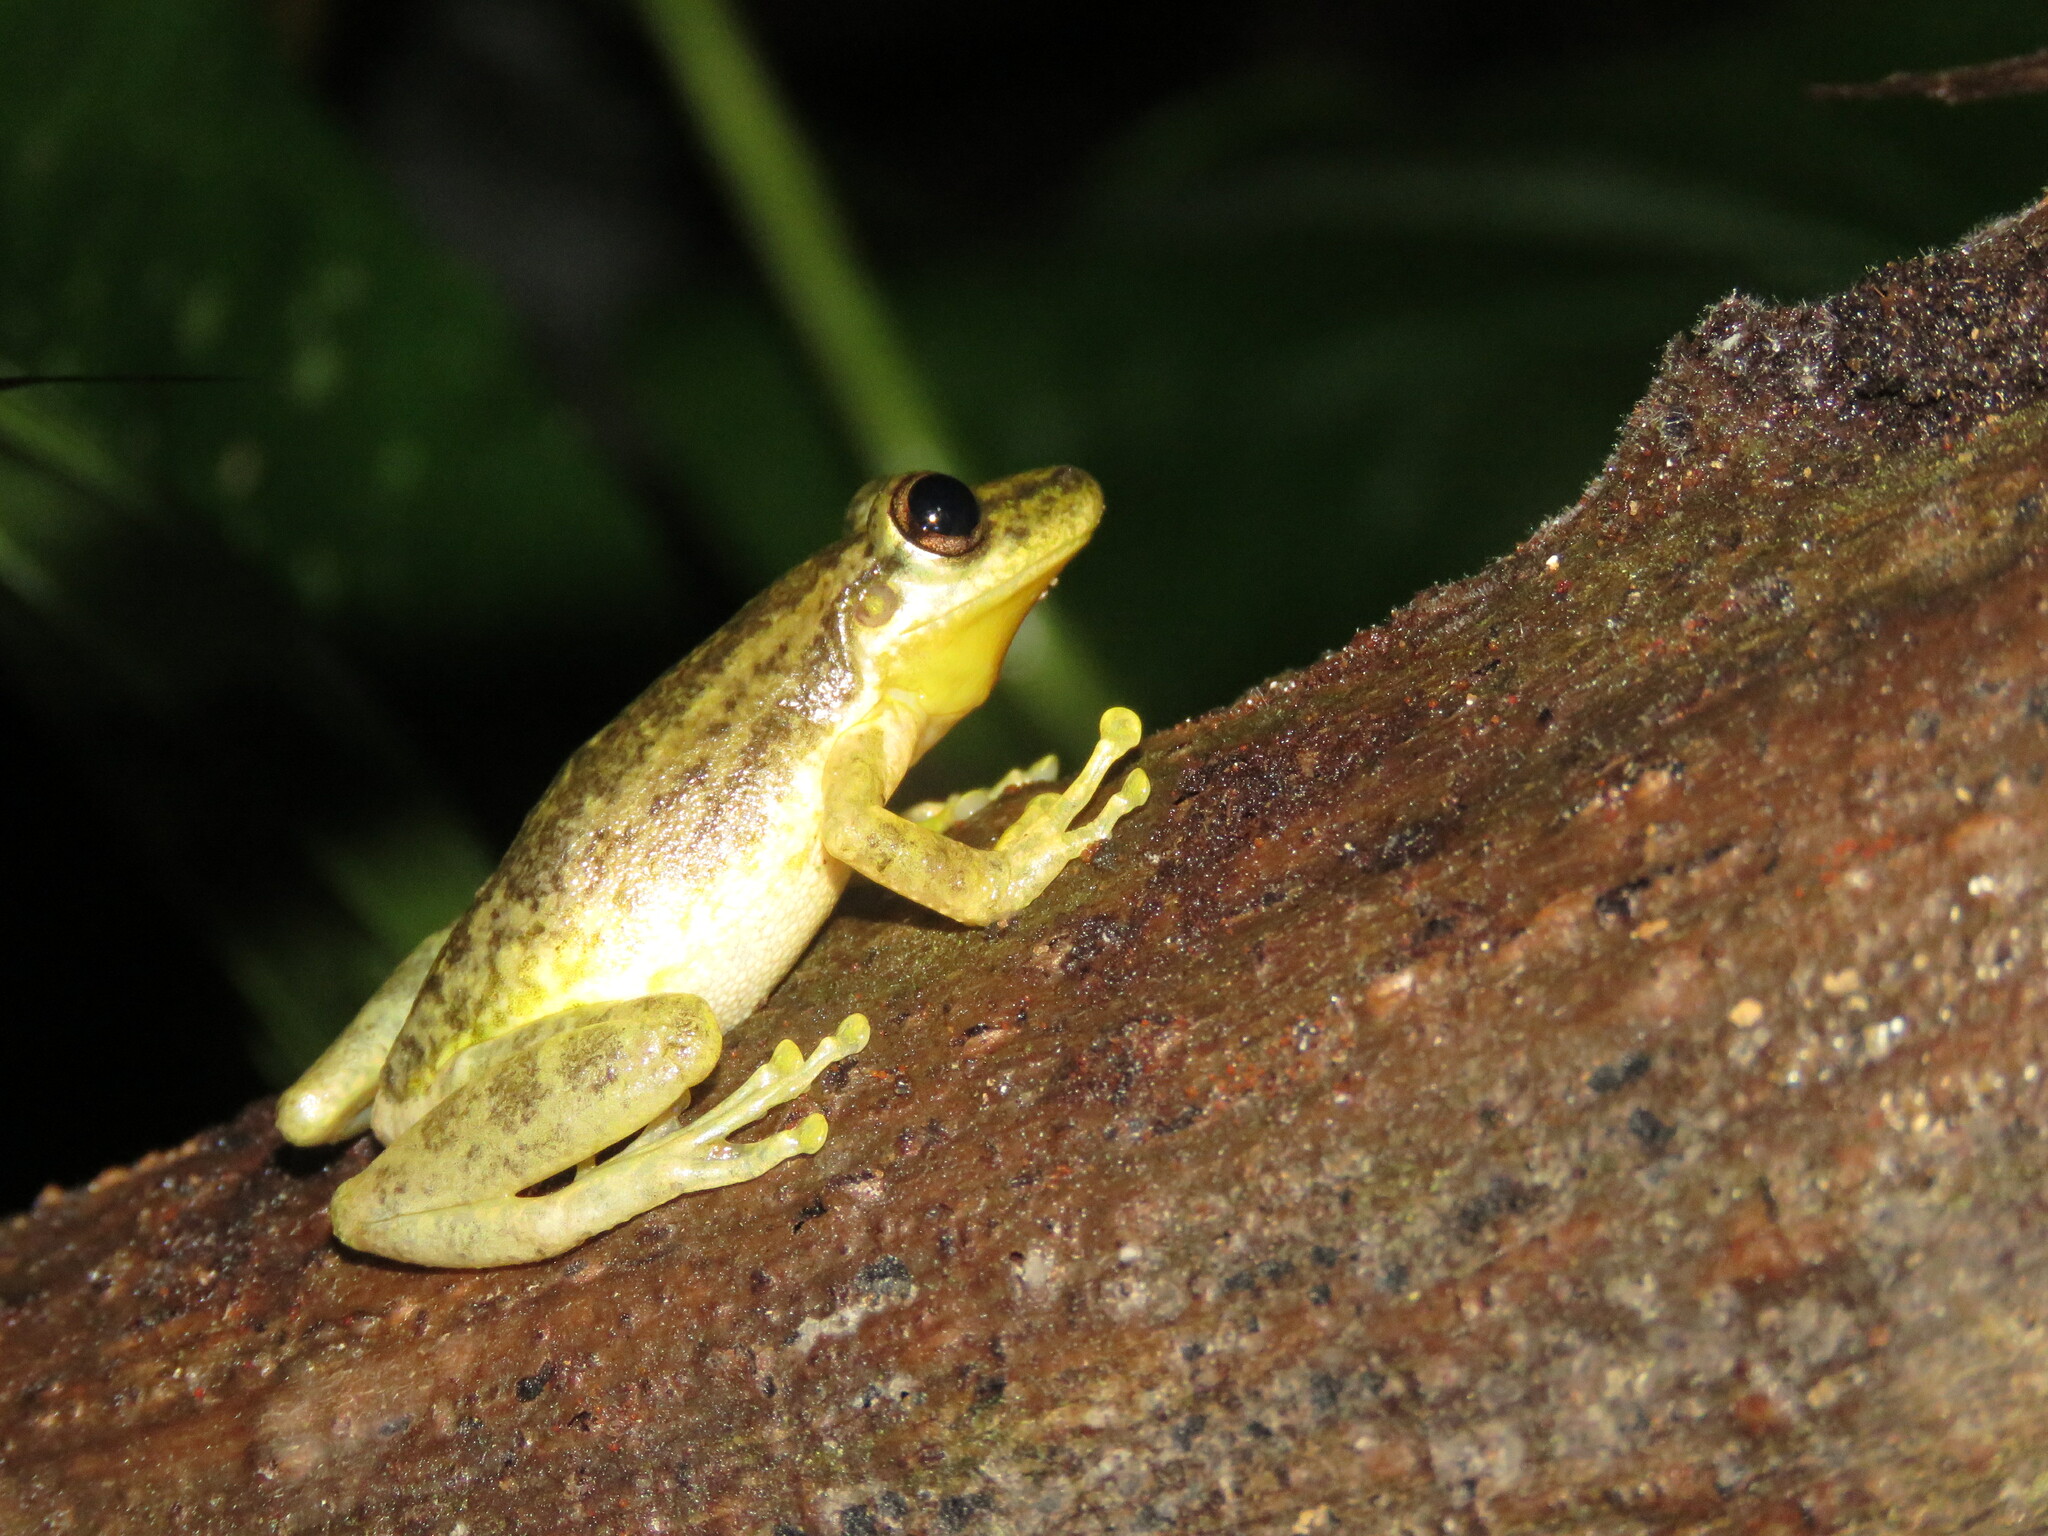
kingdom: Animalia
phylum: Chordata
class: Amphibia
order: Anura
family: Hylidae
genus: Scinax
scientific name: Scinax ruber
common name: Red snouted treefrog
